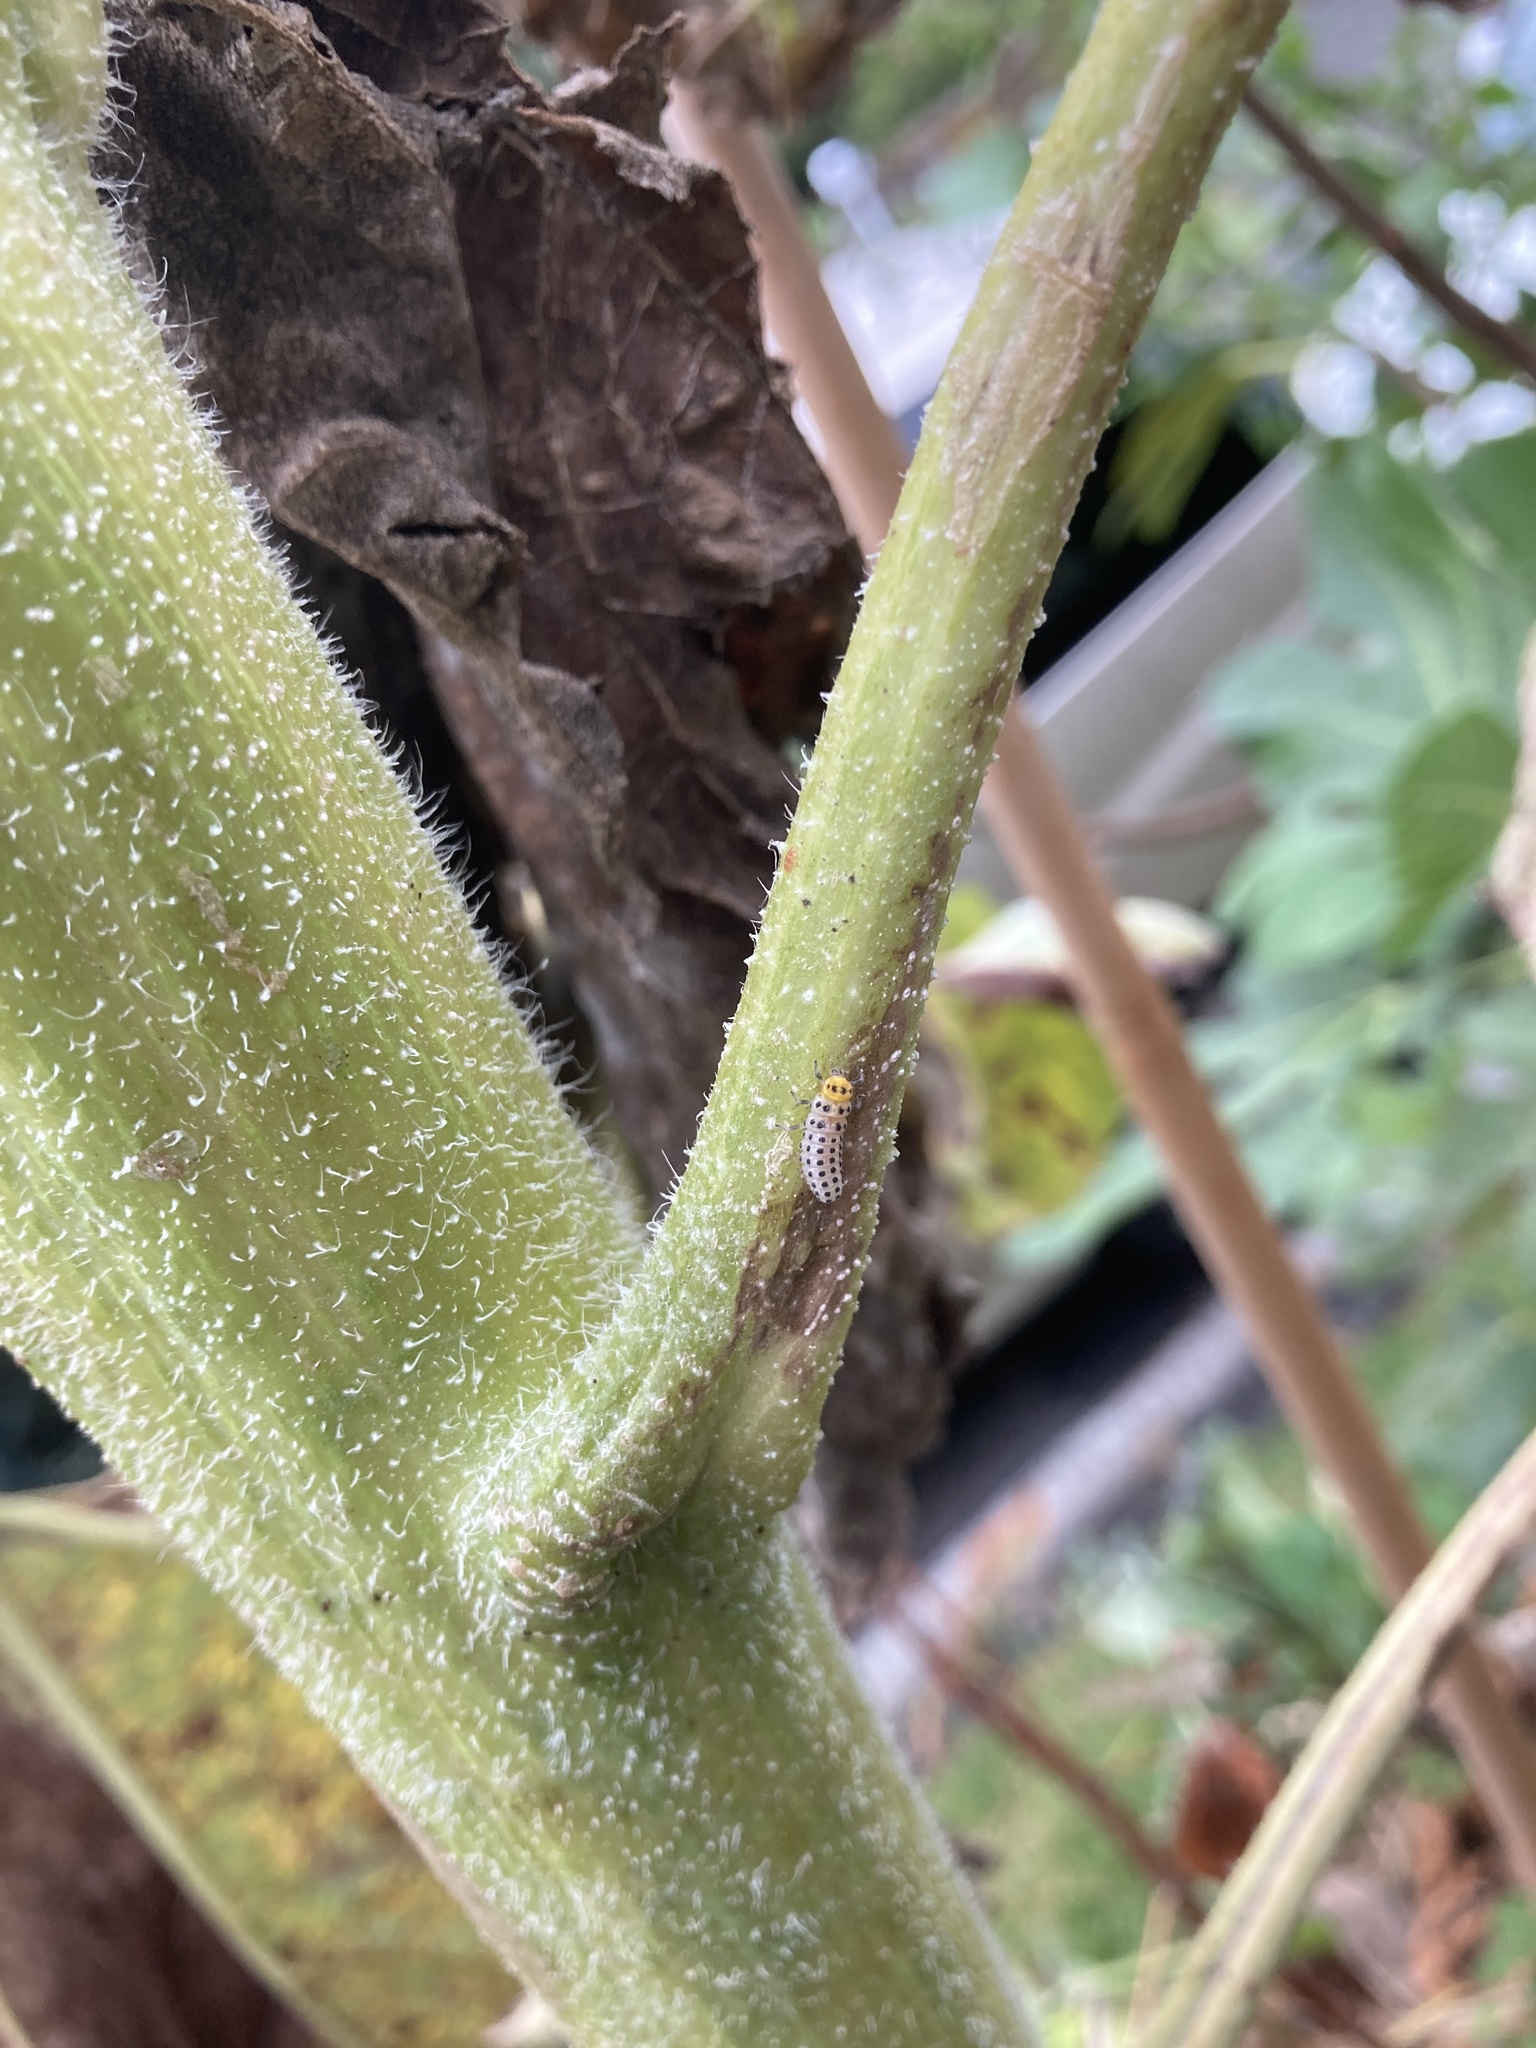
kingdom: Animalia
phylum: Arthropoda
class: Insecta
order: Coleoptera
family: Coccinellidae
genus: Illeis
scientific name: Illeis galbula
